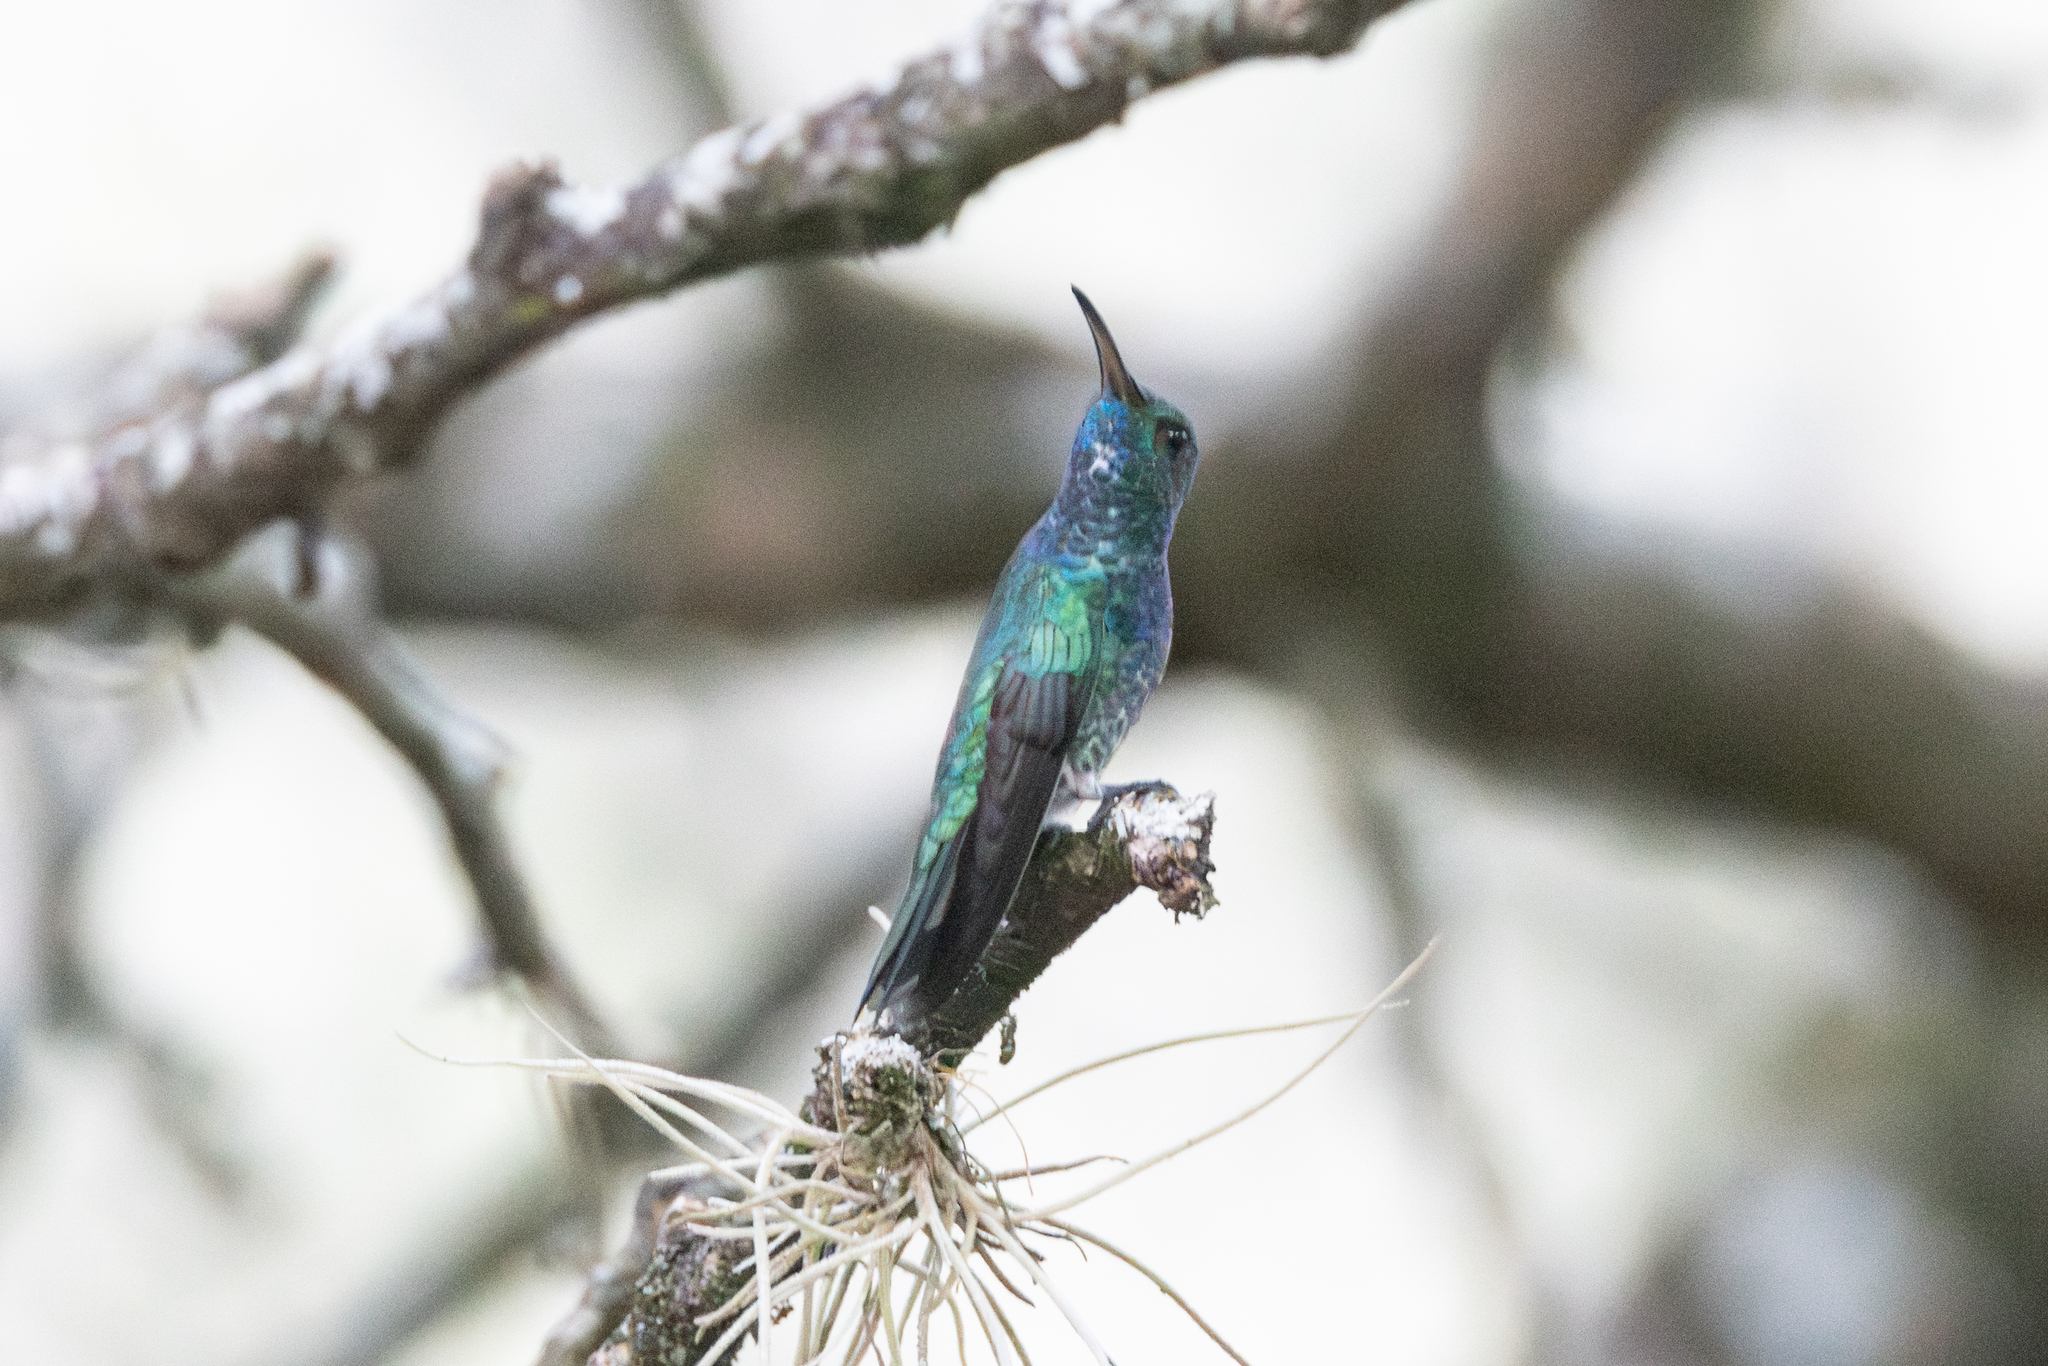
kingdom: Animalia
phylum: Chordata
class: Aves
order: Apodiformes
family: Trochilidae
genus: Chrysuronia
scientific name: Chrysuronia goudoti
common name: Shining-green hummingbird
